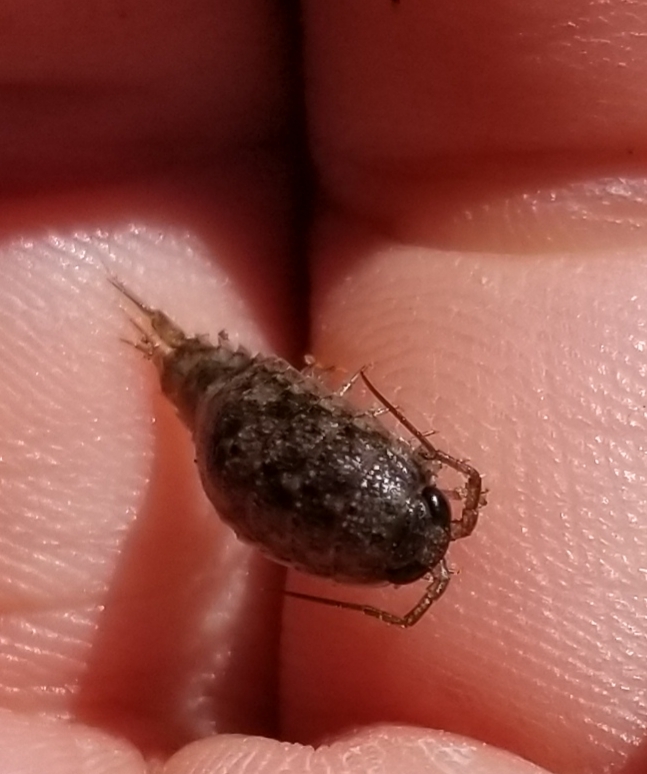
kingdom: Animalia
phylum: Arthropoda
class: Malacostraca
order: Isopoda
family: Ligiidae
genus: Ligia
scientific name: Ligia occidentalis
